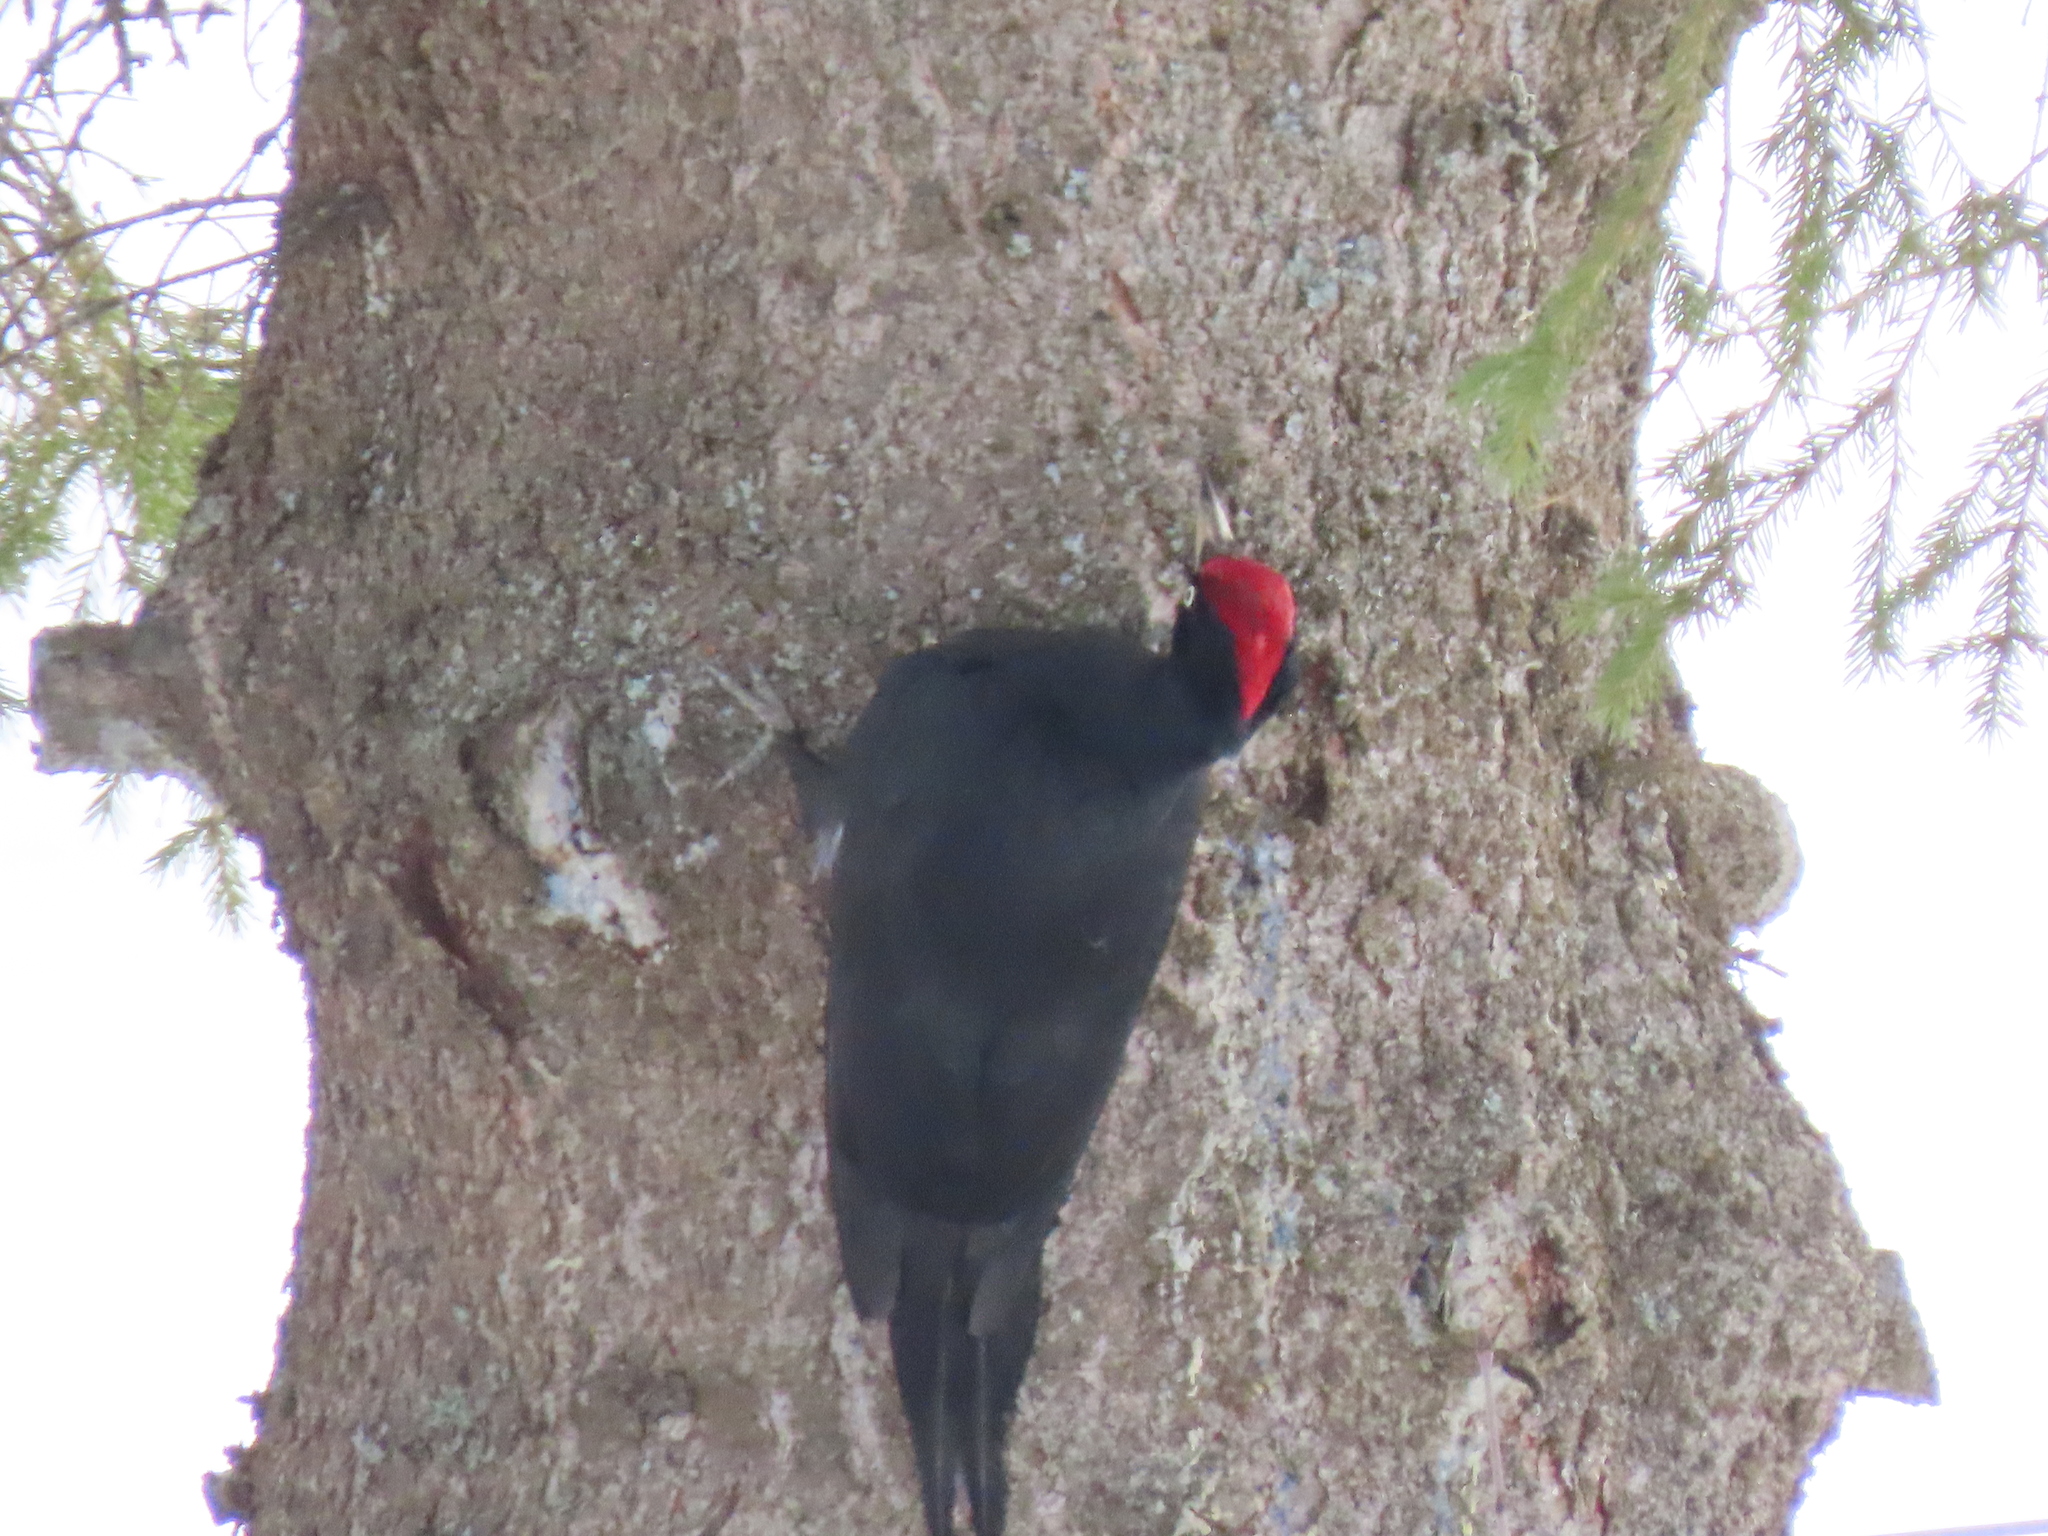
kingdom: Animalia
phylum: Chordata
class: Aves
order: Piciformes
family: Picidae
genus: Dryocopus
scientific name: Dryocopus martius
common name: Black woodpecker
